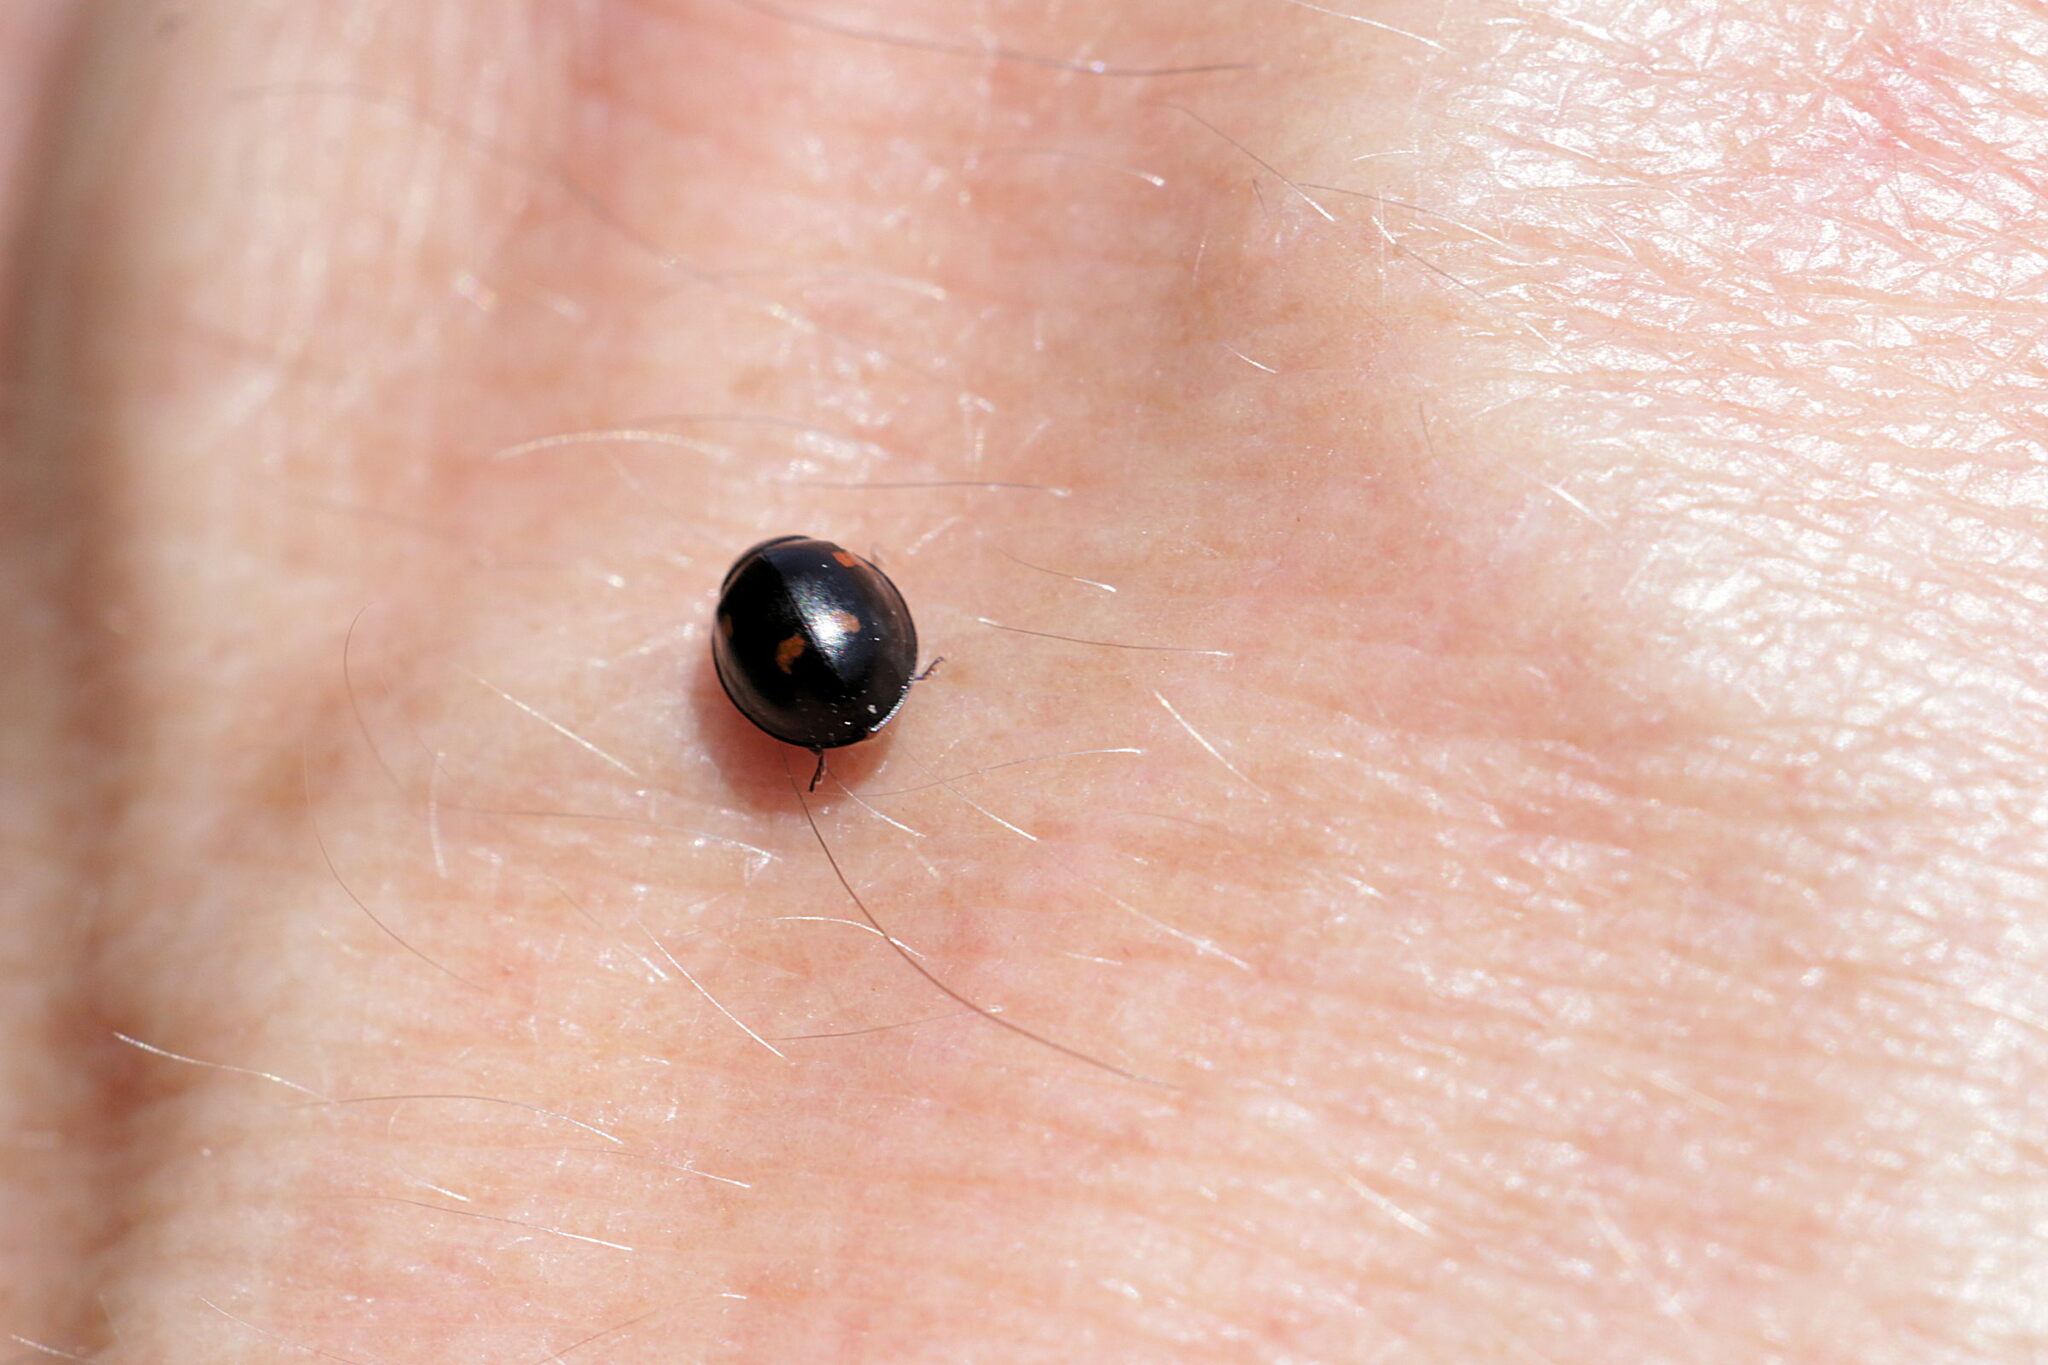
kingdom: Animalia
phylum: Arthropoda
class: Insecta
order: Coleoptera
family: Coccinellidae
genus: Brumus
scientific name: Brumus quadripustulatus
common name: Ladybird beetle
